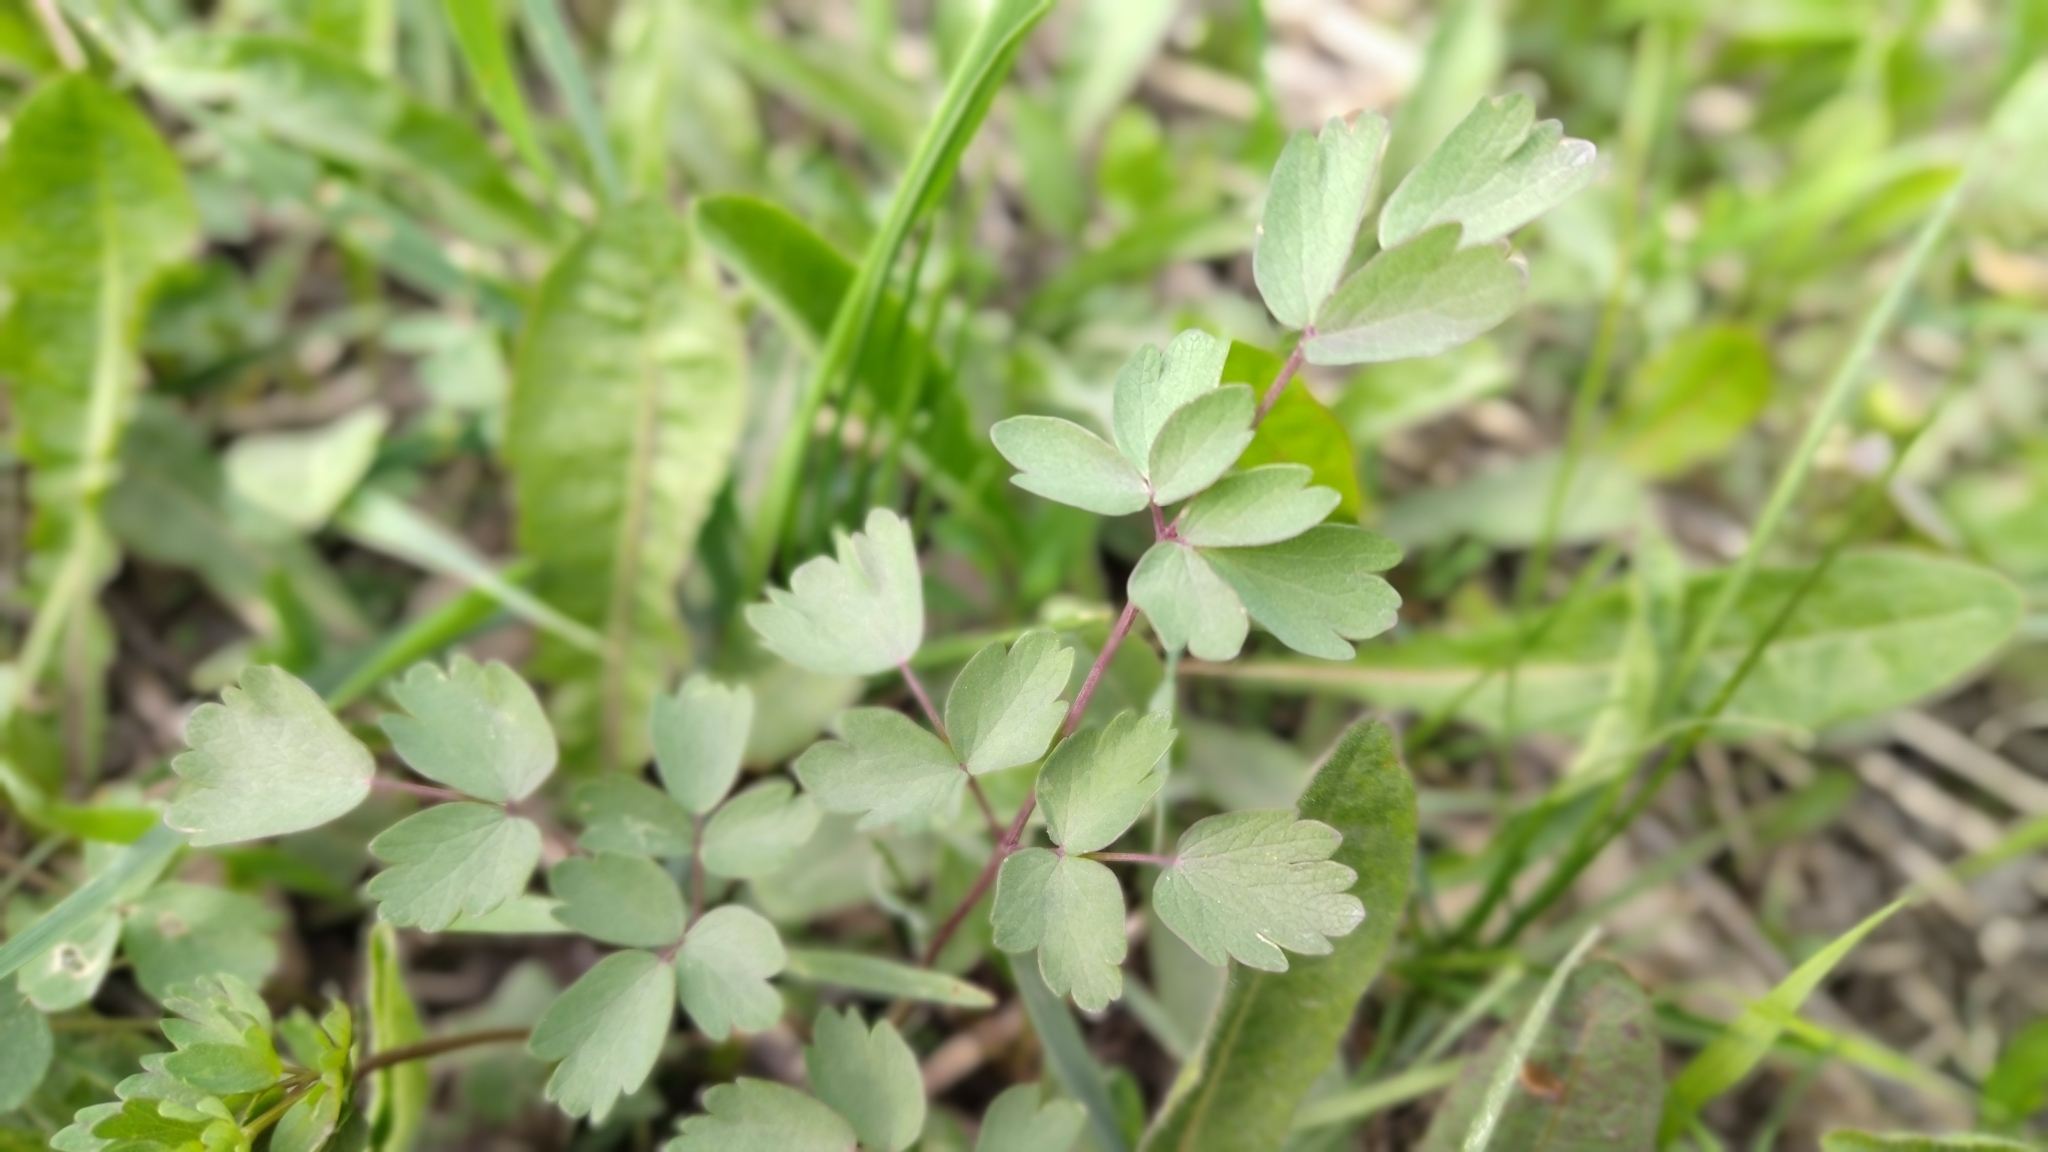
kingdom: Plantae
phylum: Tracheophyta
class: Magnoliopsida
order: Ranunculales
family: Ranunculaceae
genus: Thalictrum
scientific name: Thalictrum minus
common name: Lesser meadow-rue
